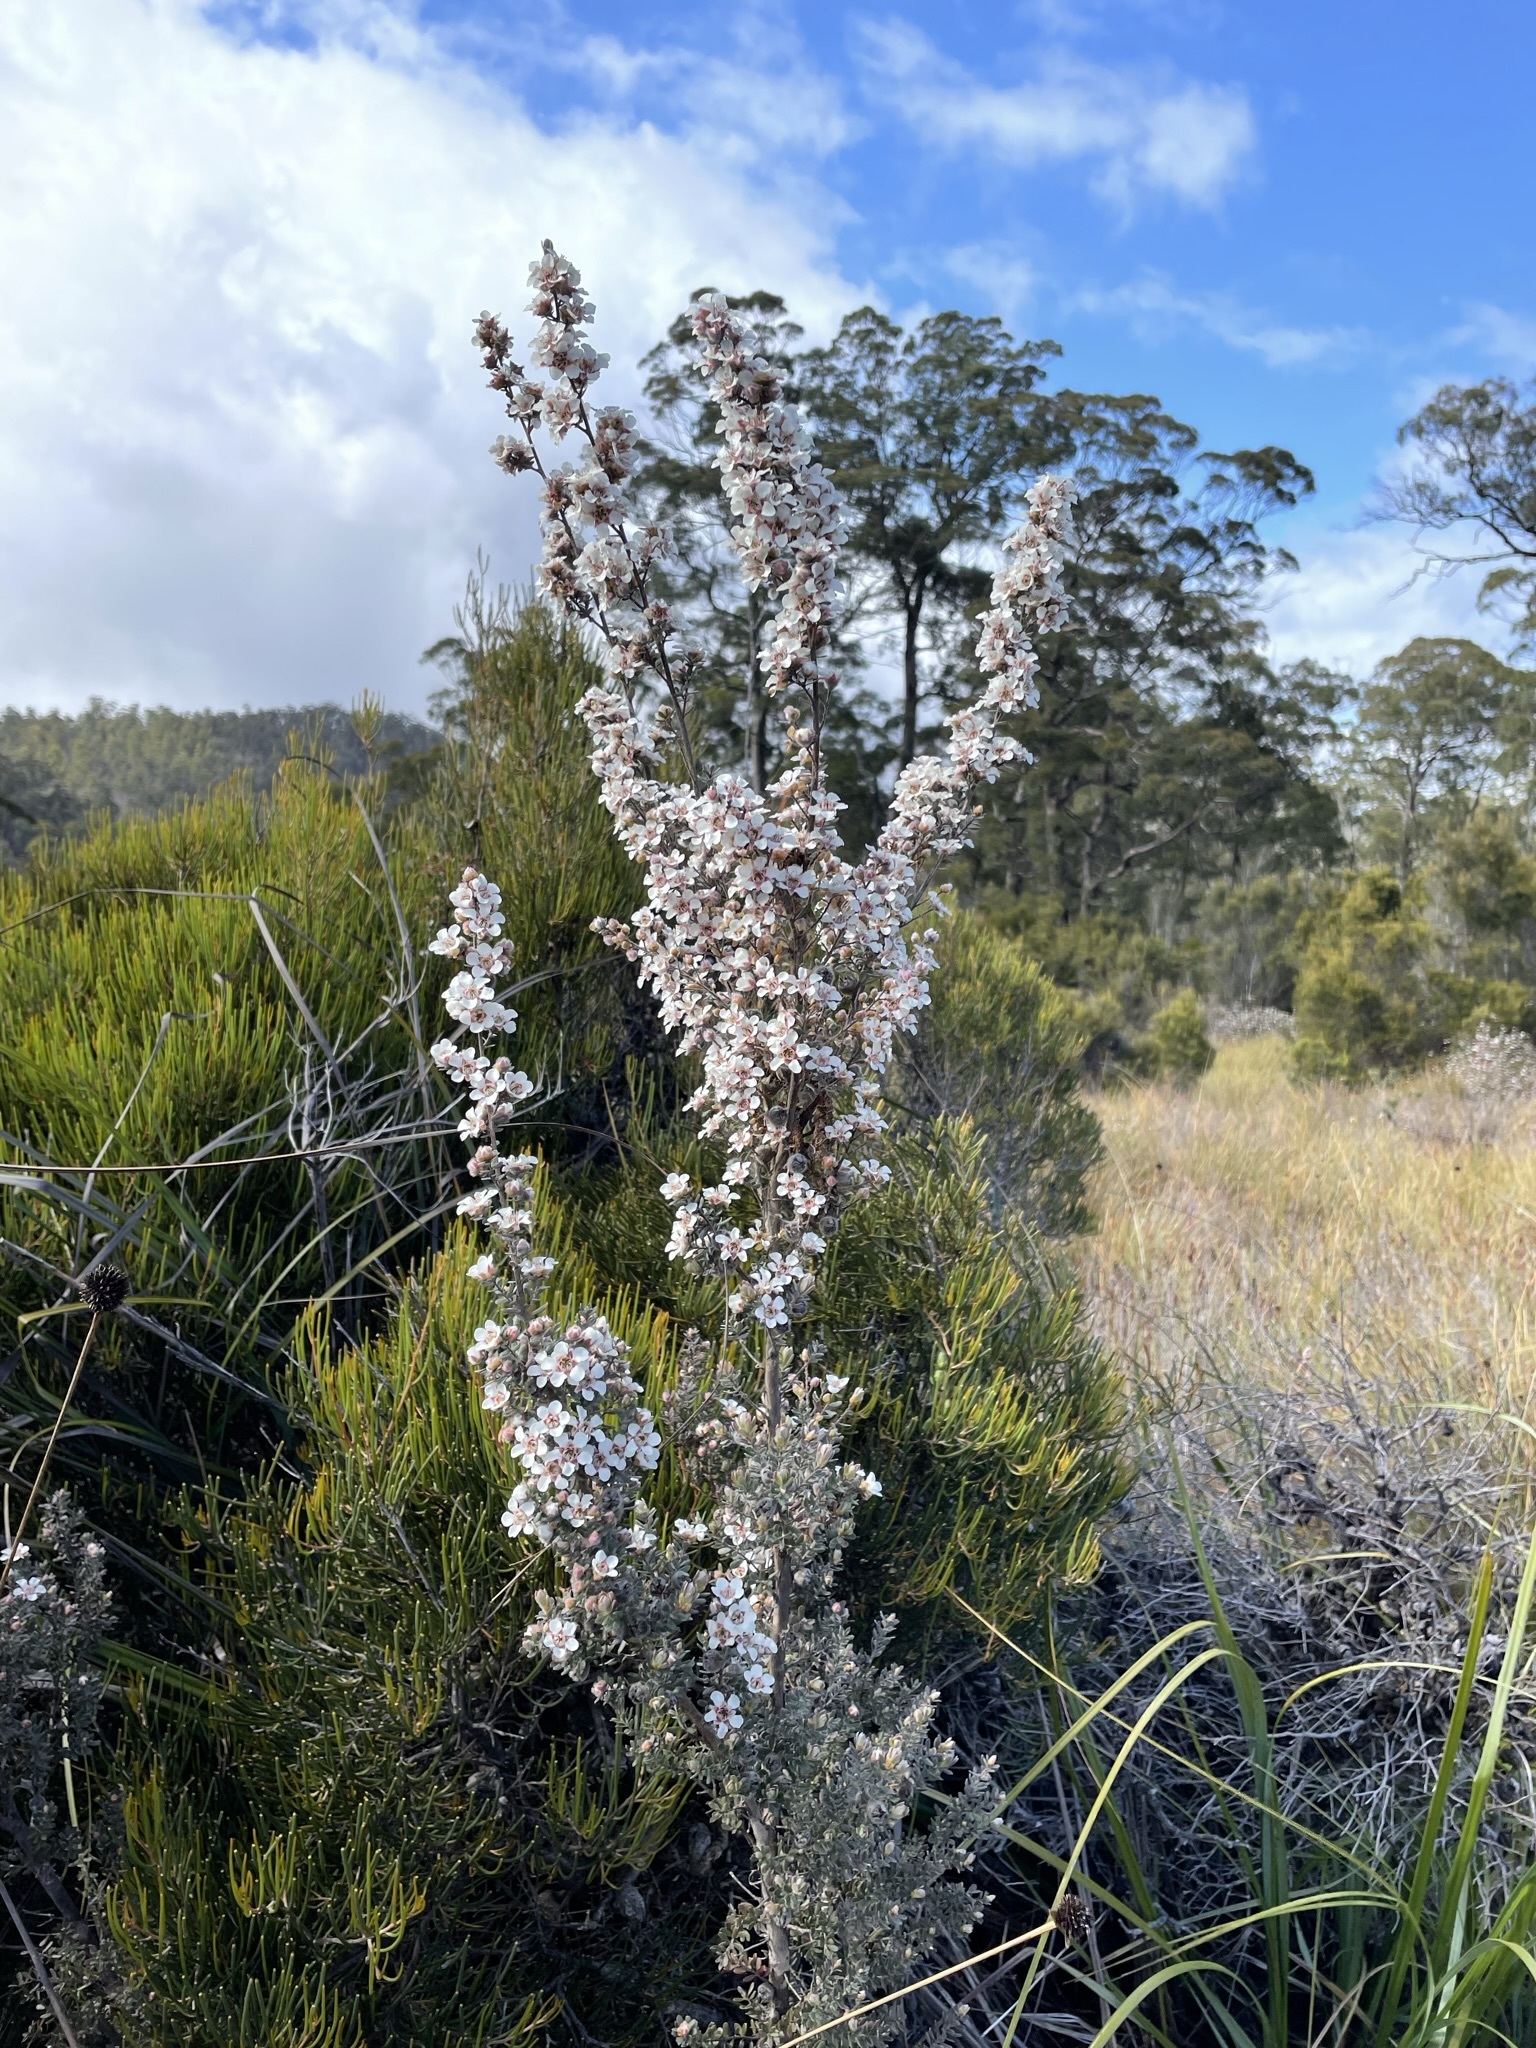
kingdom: Plantae
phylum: Tracheophyta
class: Magnoliopsida
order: Myrtales
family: Myrtaceae
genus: Leptospermum
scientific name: Leptospermum lanigerum
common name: Woolly tea-tree
